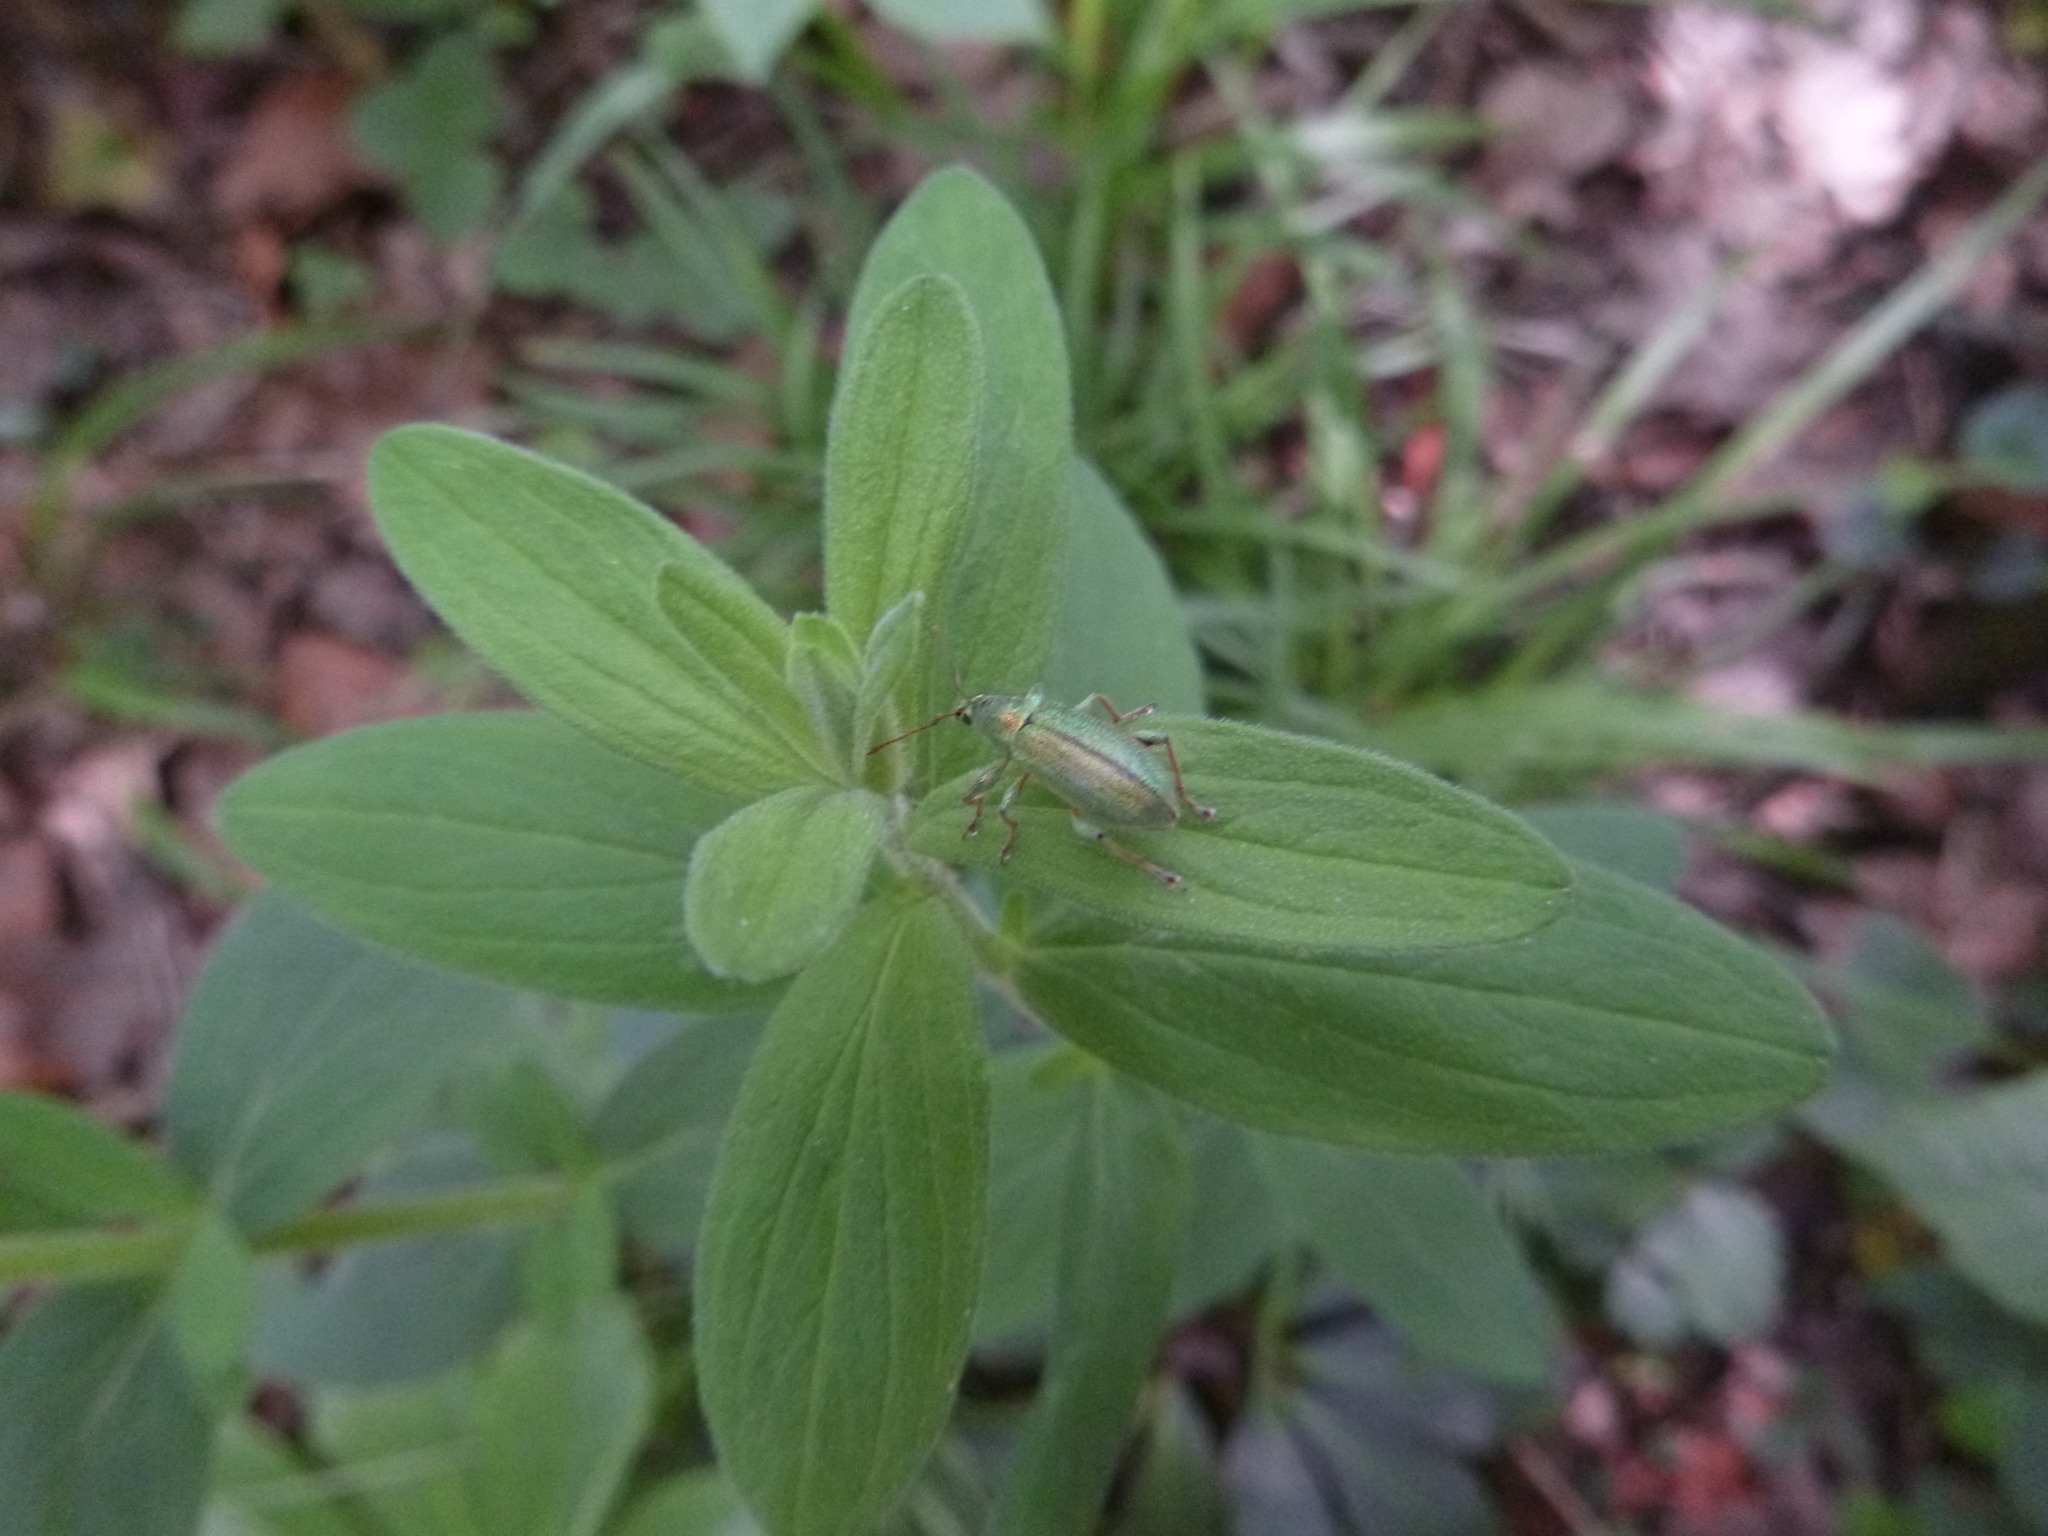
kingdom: Animalia
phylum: Arthropoda
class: Insecta
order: Coleoptera
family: Curculionidae
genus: Phyllobius
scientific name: Phyllobius arborator
